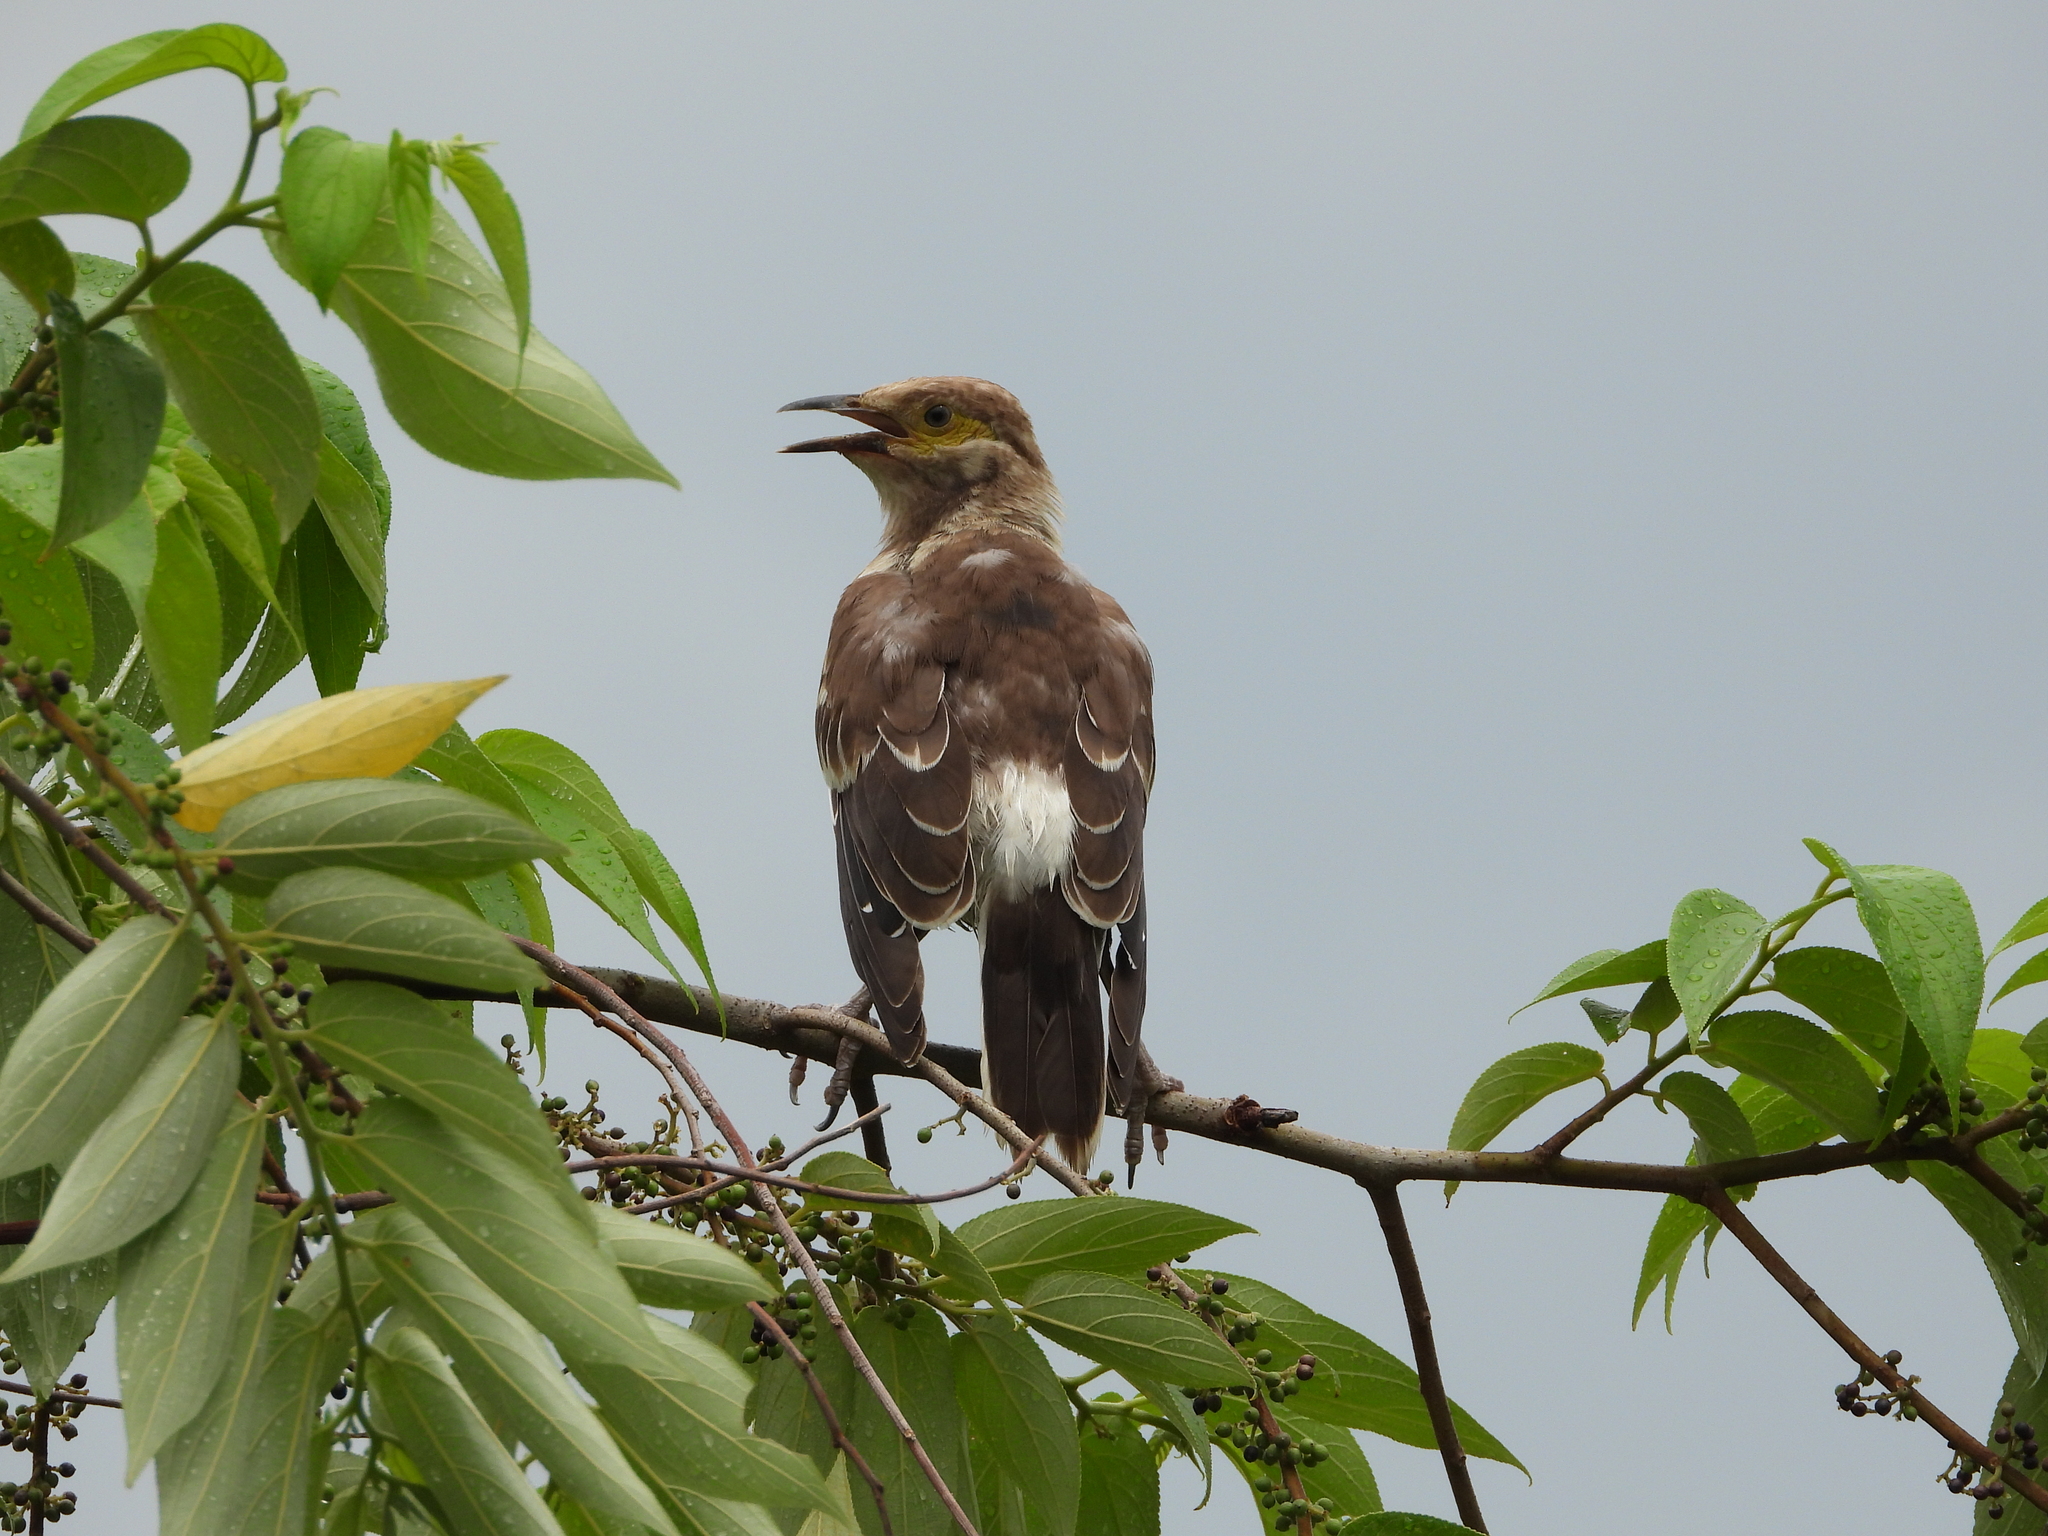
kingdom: Animalia
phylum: Chordata
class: Aves
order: Passeriformes
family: Sturnidae
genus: Gracupica
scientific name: Gracupica nigricollis
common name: Black-collared starling
